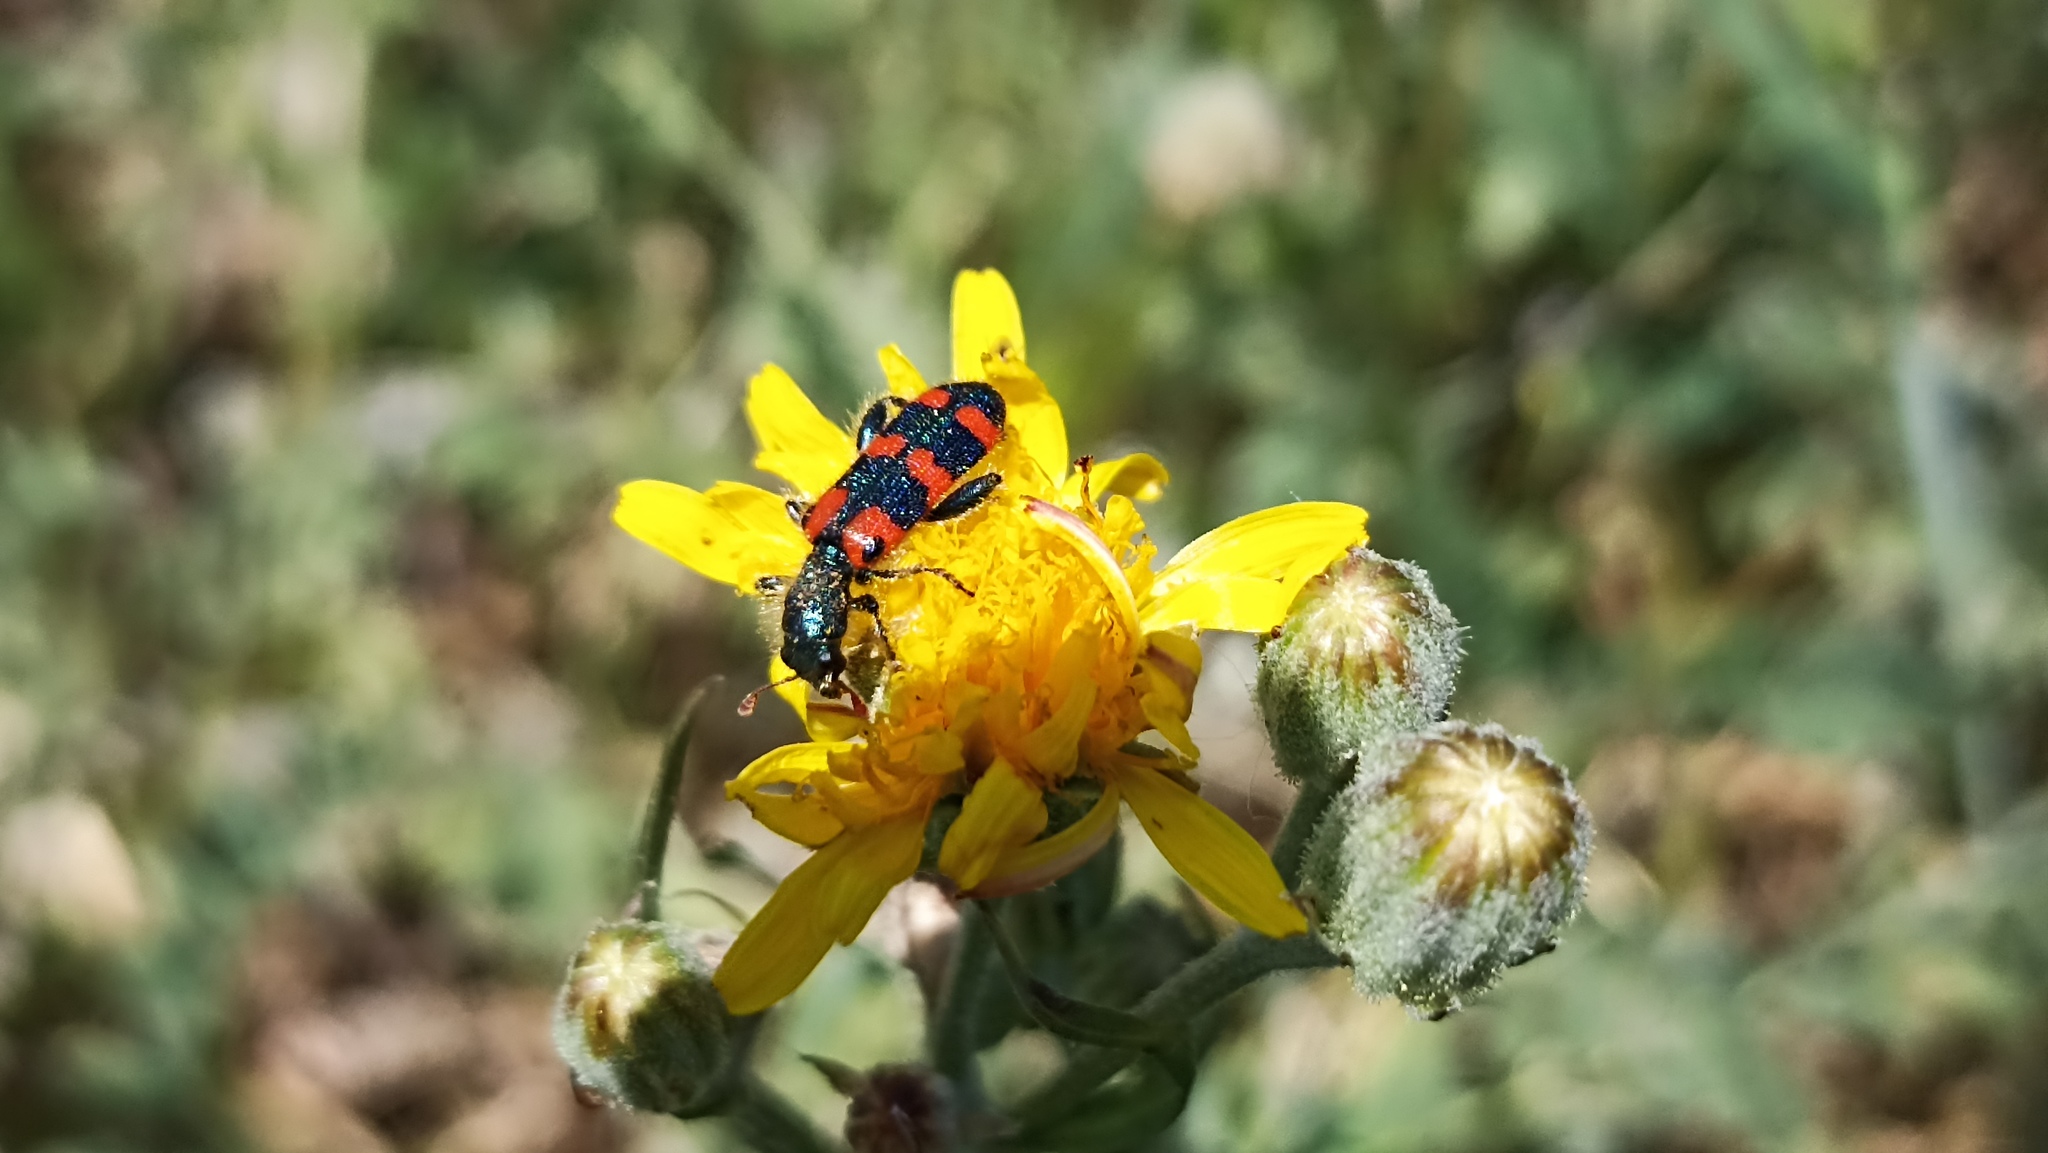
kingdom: Animalia
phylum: Arthropoda
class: Insecta
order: Coleoptera
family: Cleridae
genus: Trichodes
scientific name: Trichodes leucopsideus
